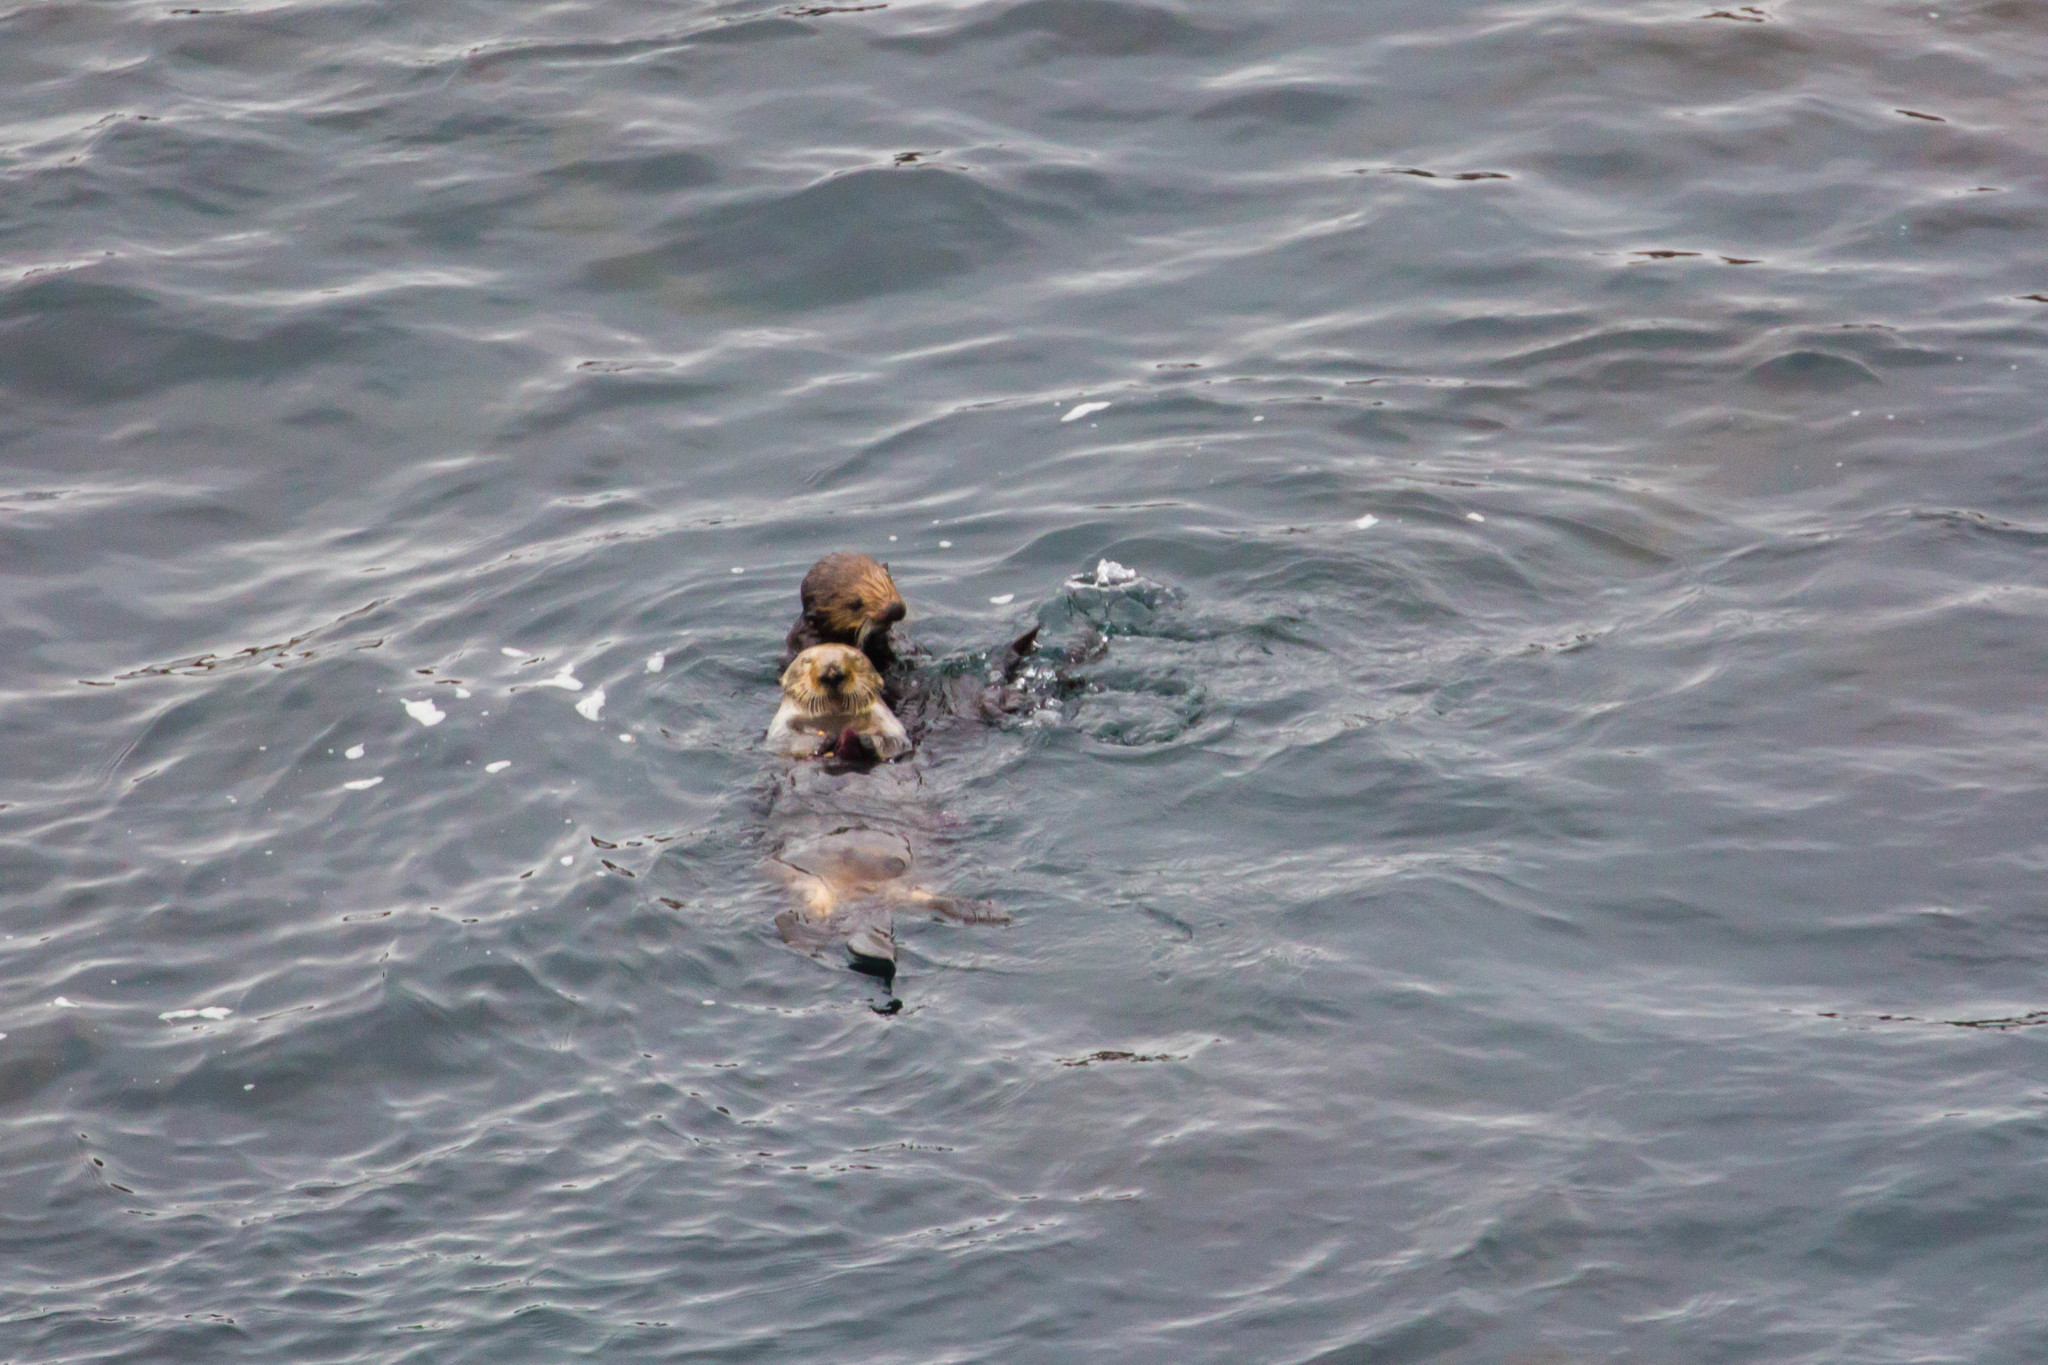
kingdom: Animalia
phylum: Chordata
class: Mammalia
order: Carnivora
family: Mustelidae
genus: Enhydra
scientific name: Enhydra lutris
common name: Sea otter
